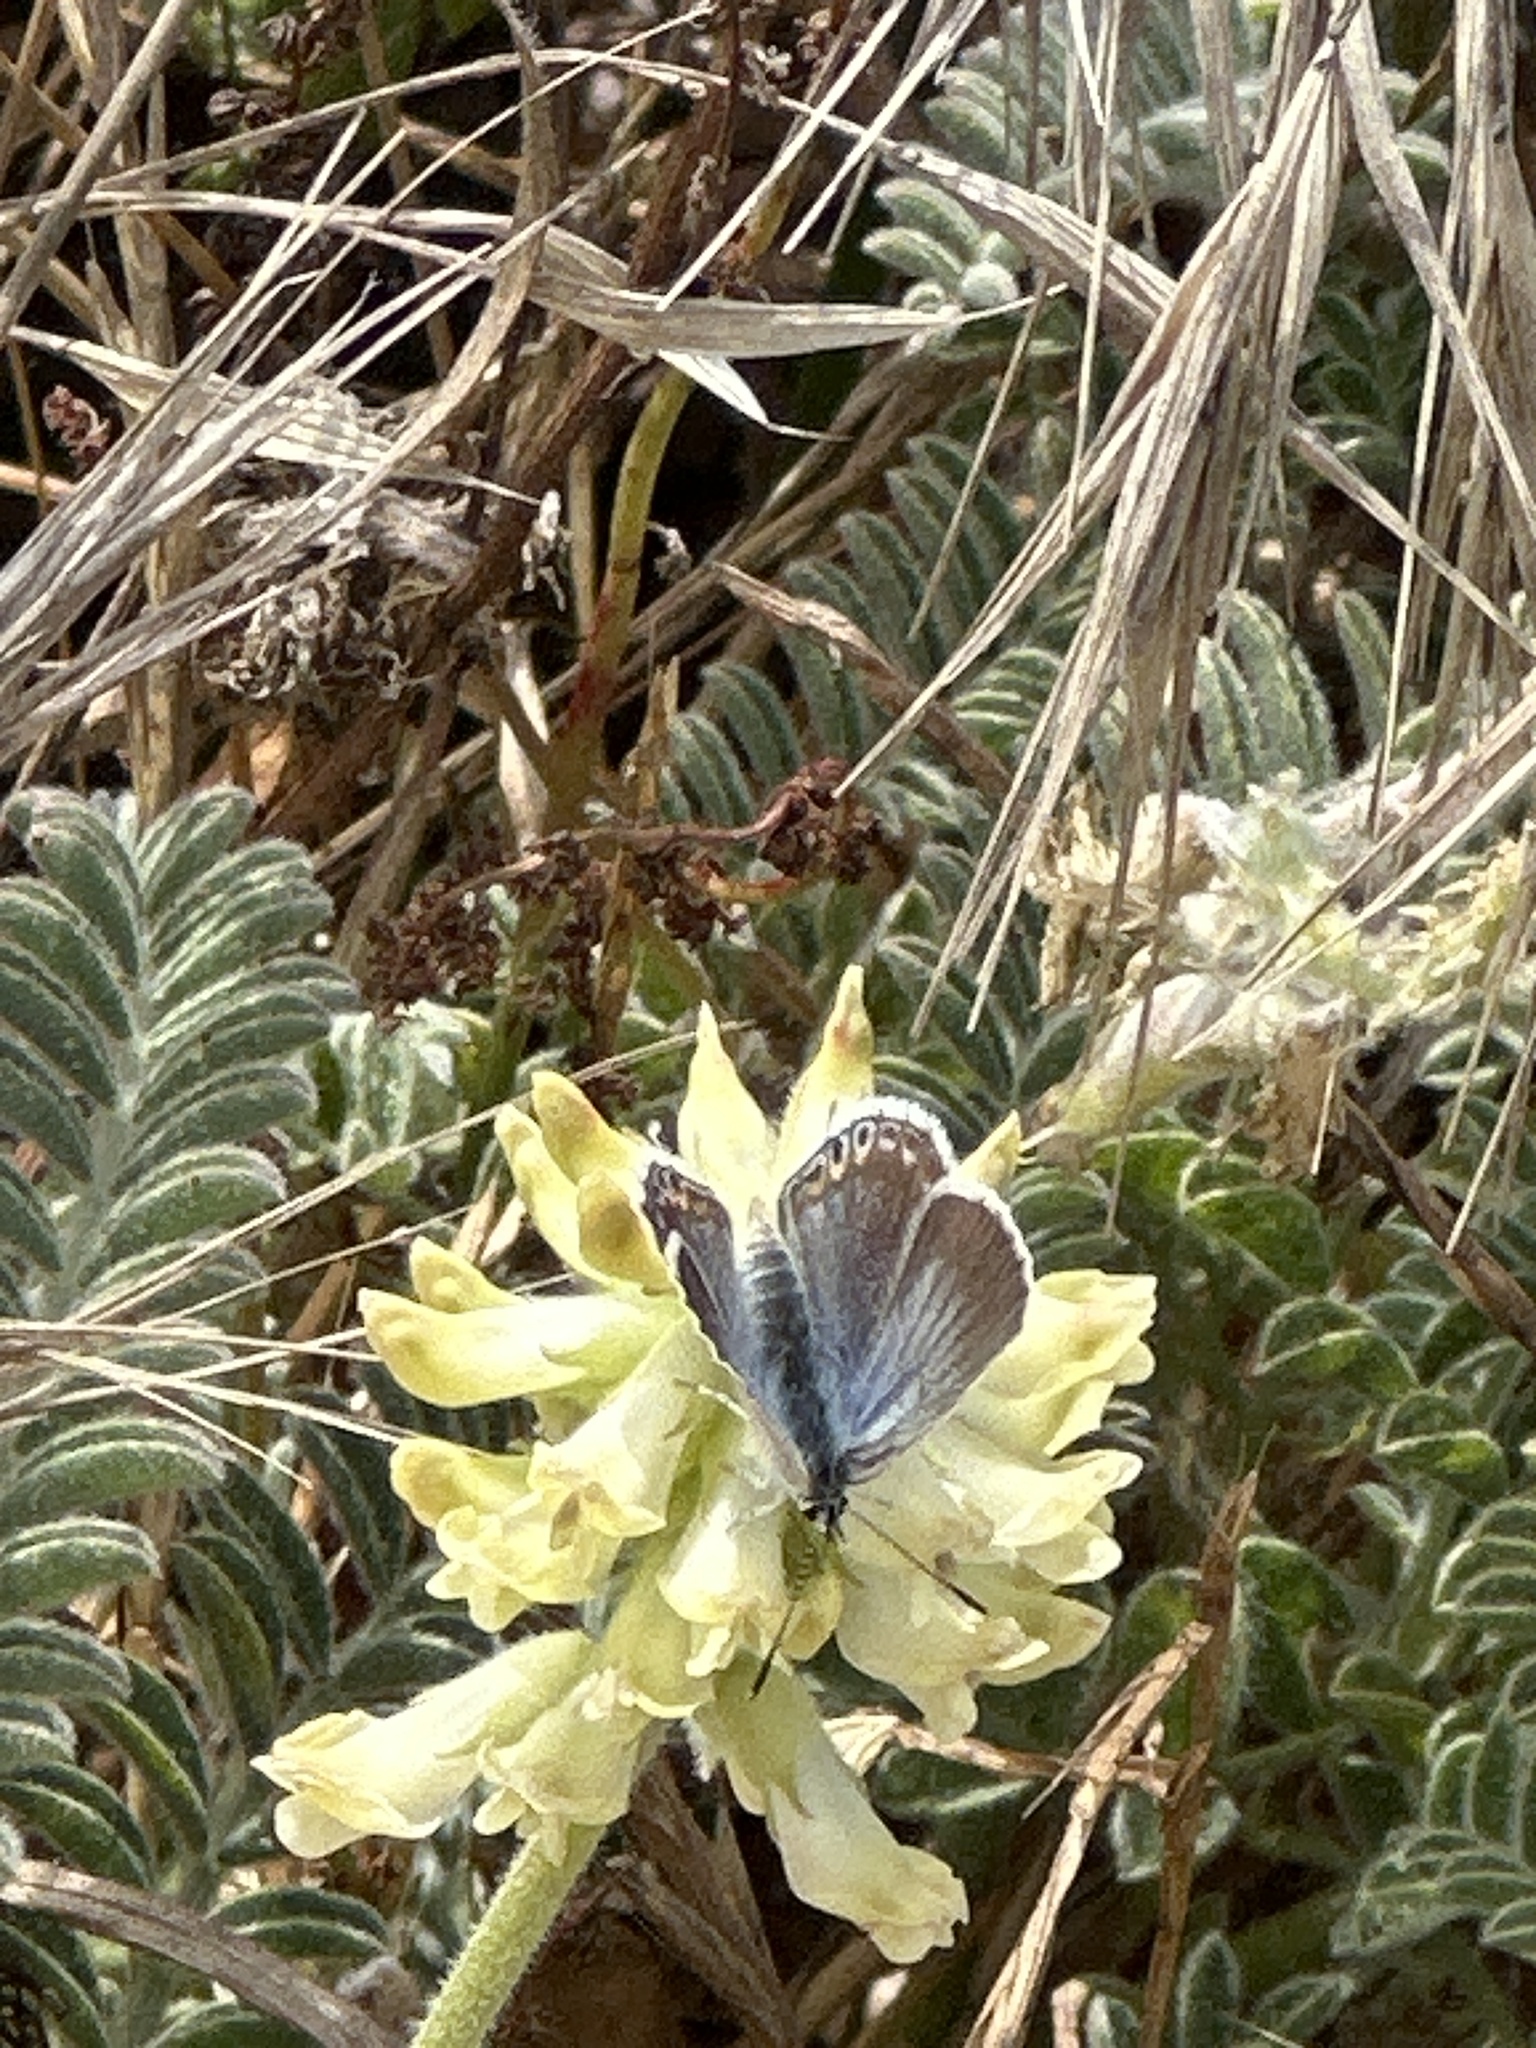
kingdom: Animalia
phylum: Arthropoda
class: Insecta
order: Lepidoptera
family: Lycaenidae
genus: Elkalyce
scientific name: Elkalyce amyntula
